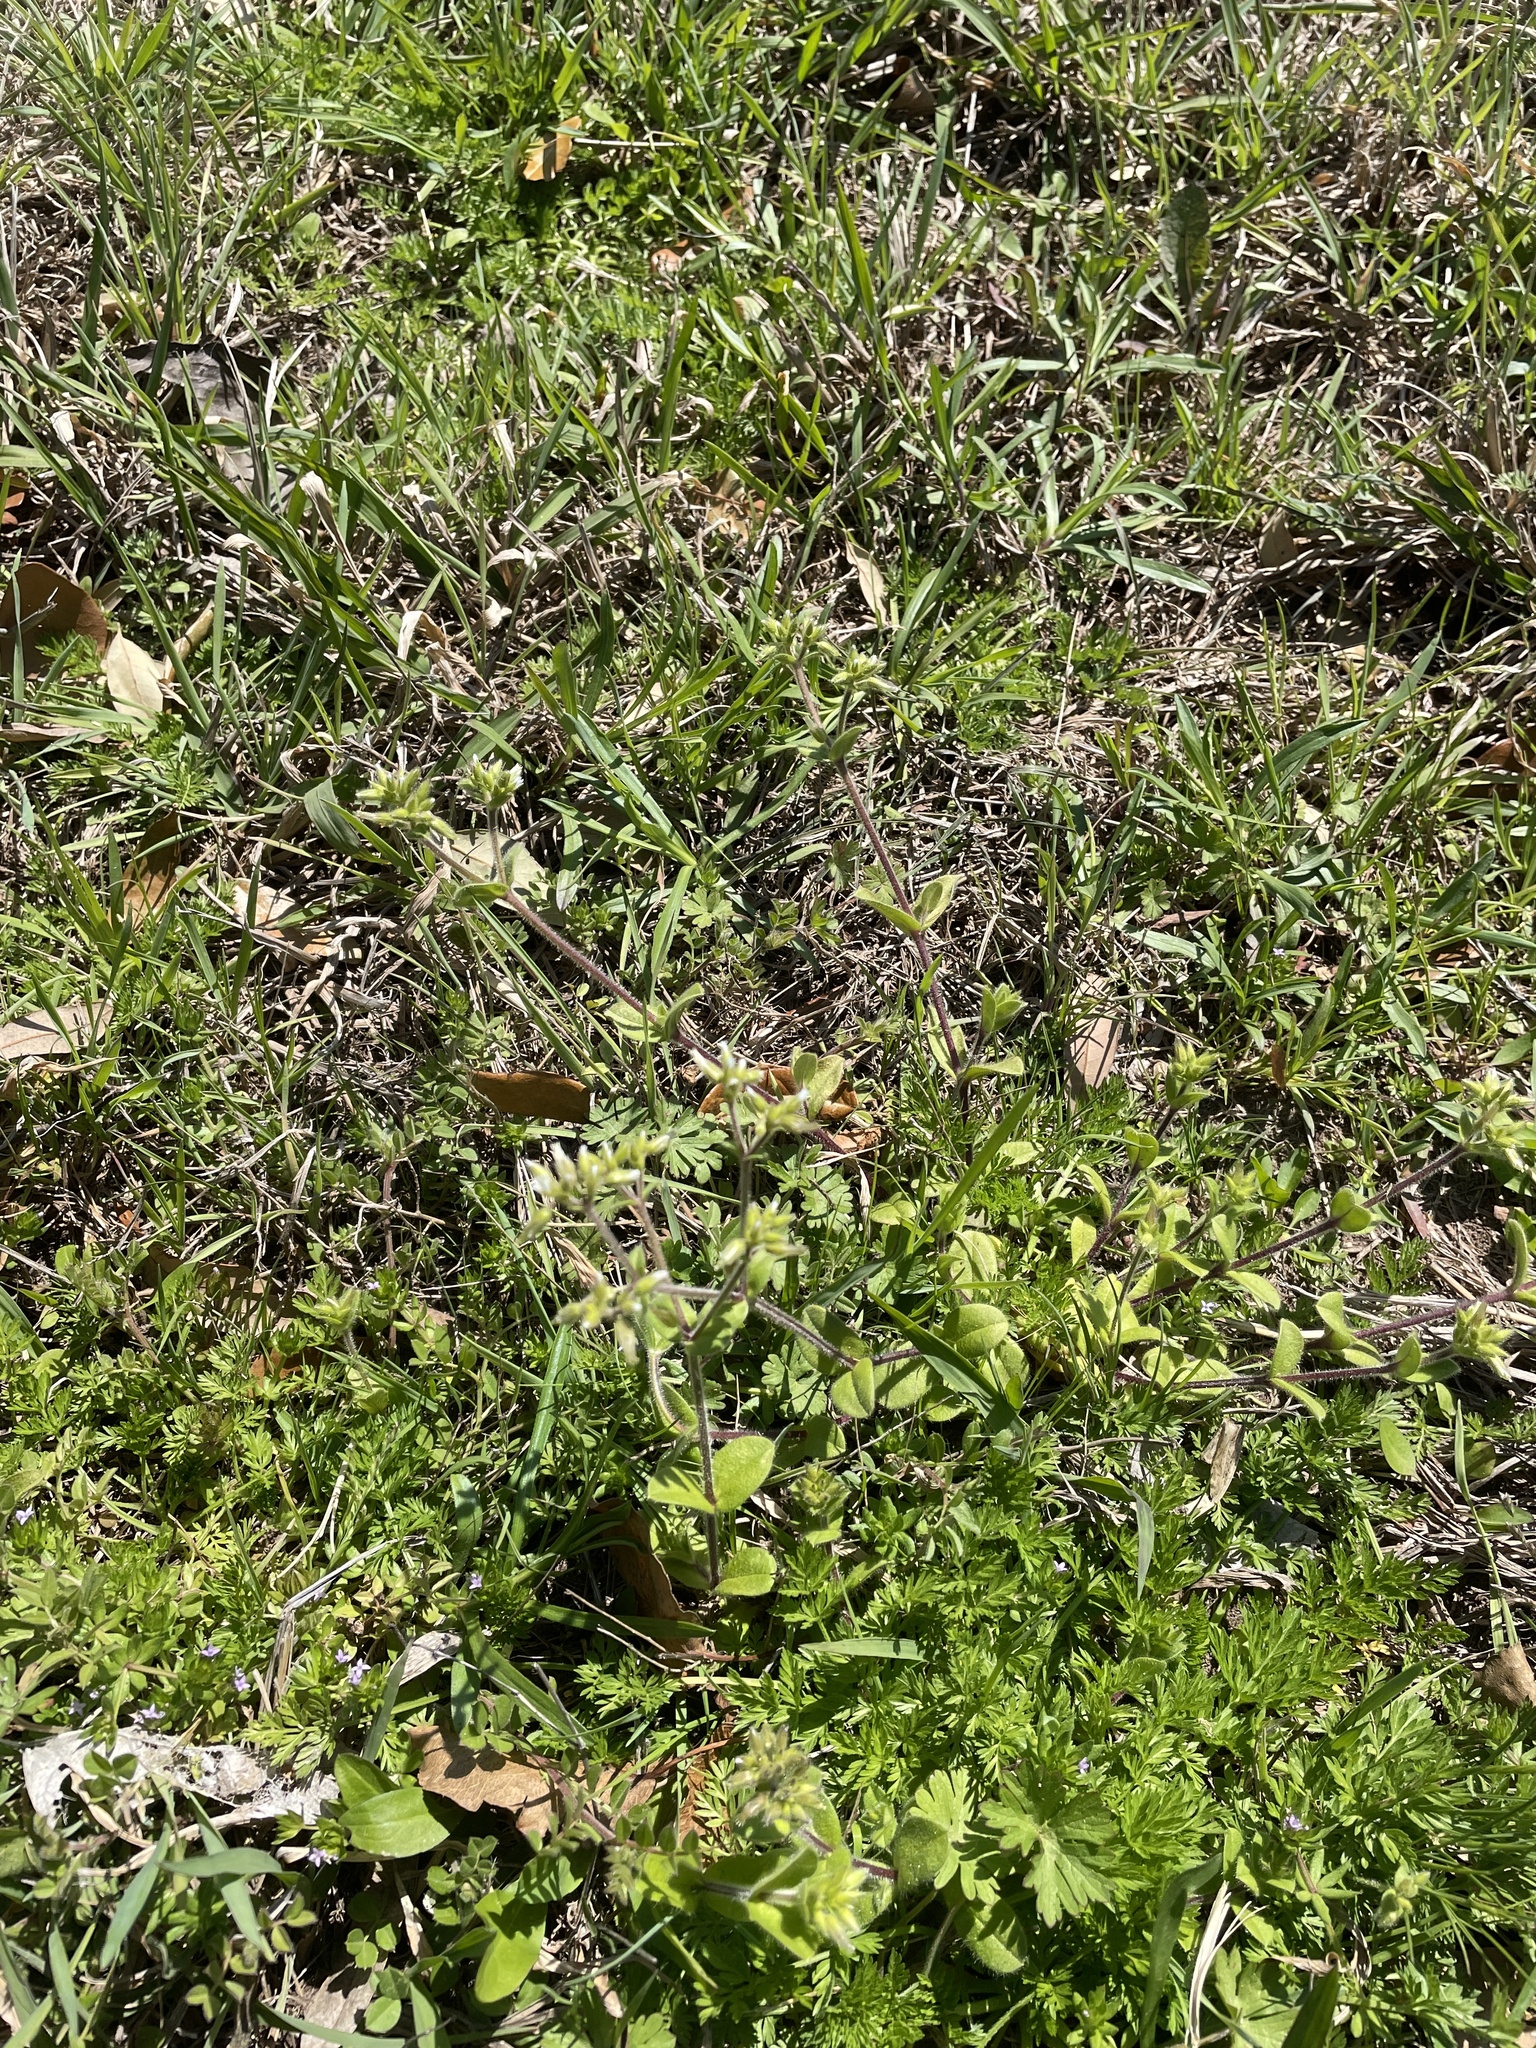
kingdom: Plantae
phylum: Tracheophyta
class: Magnoliopsida
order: Caryophyllales
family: Caryophyllaceae
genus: Cerastium
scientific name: Cerastium glomeratum
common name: Sticky chickweed
